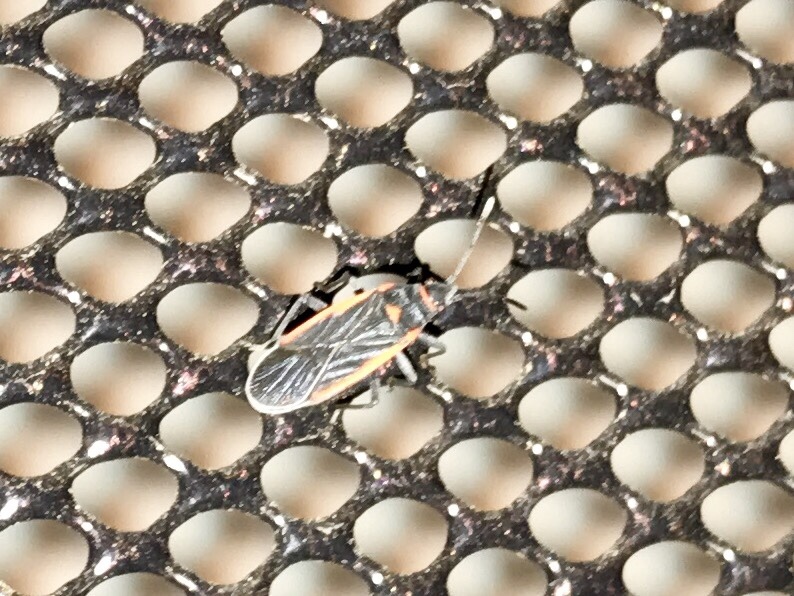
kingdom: Animalia
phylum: Arthropoda
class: Insecta
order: Hemiptera
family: Lygaeidae
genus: Melacoryphus
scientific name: Melacoryphus lateralis
